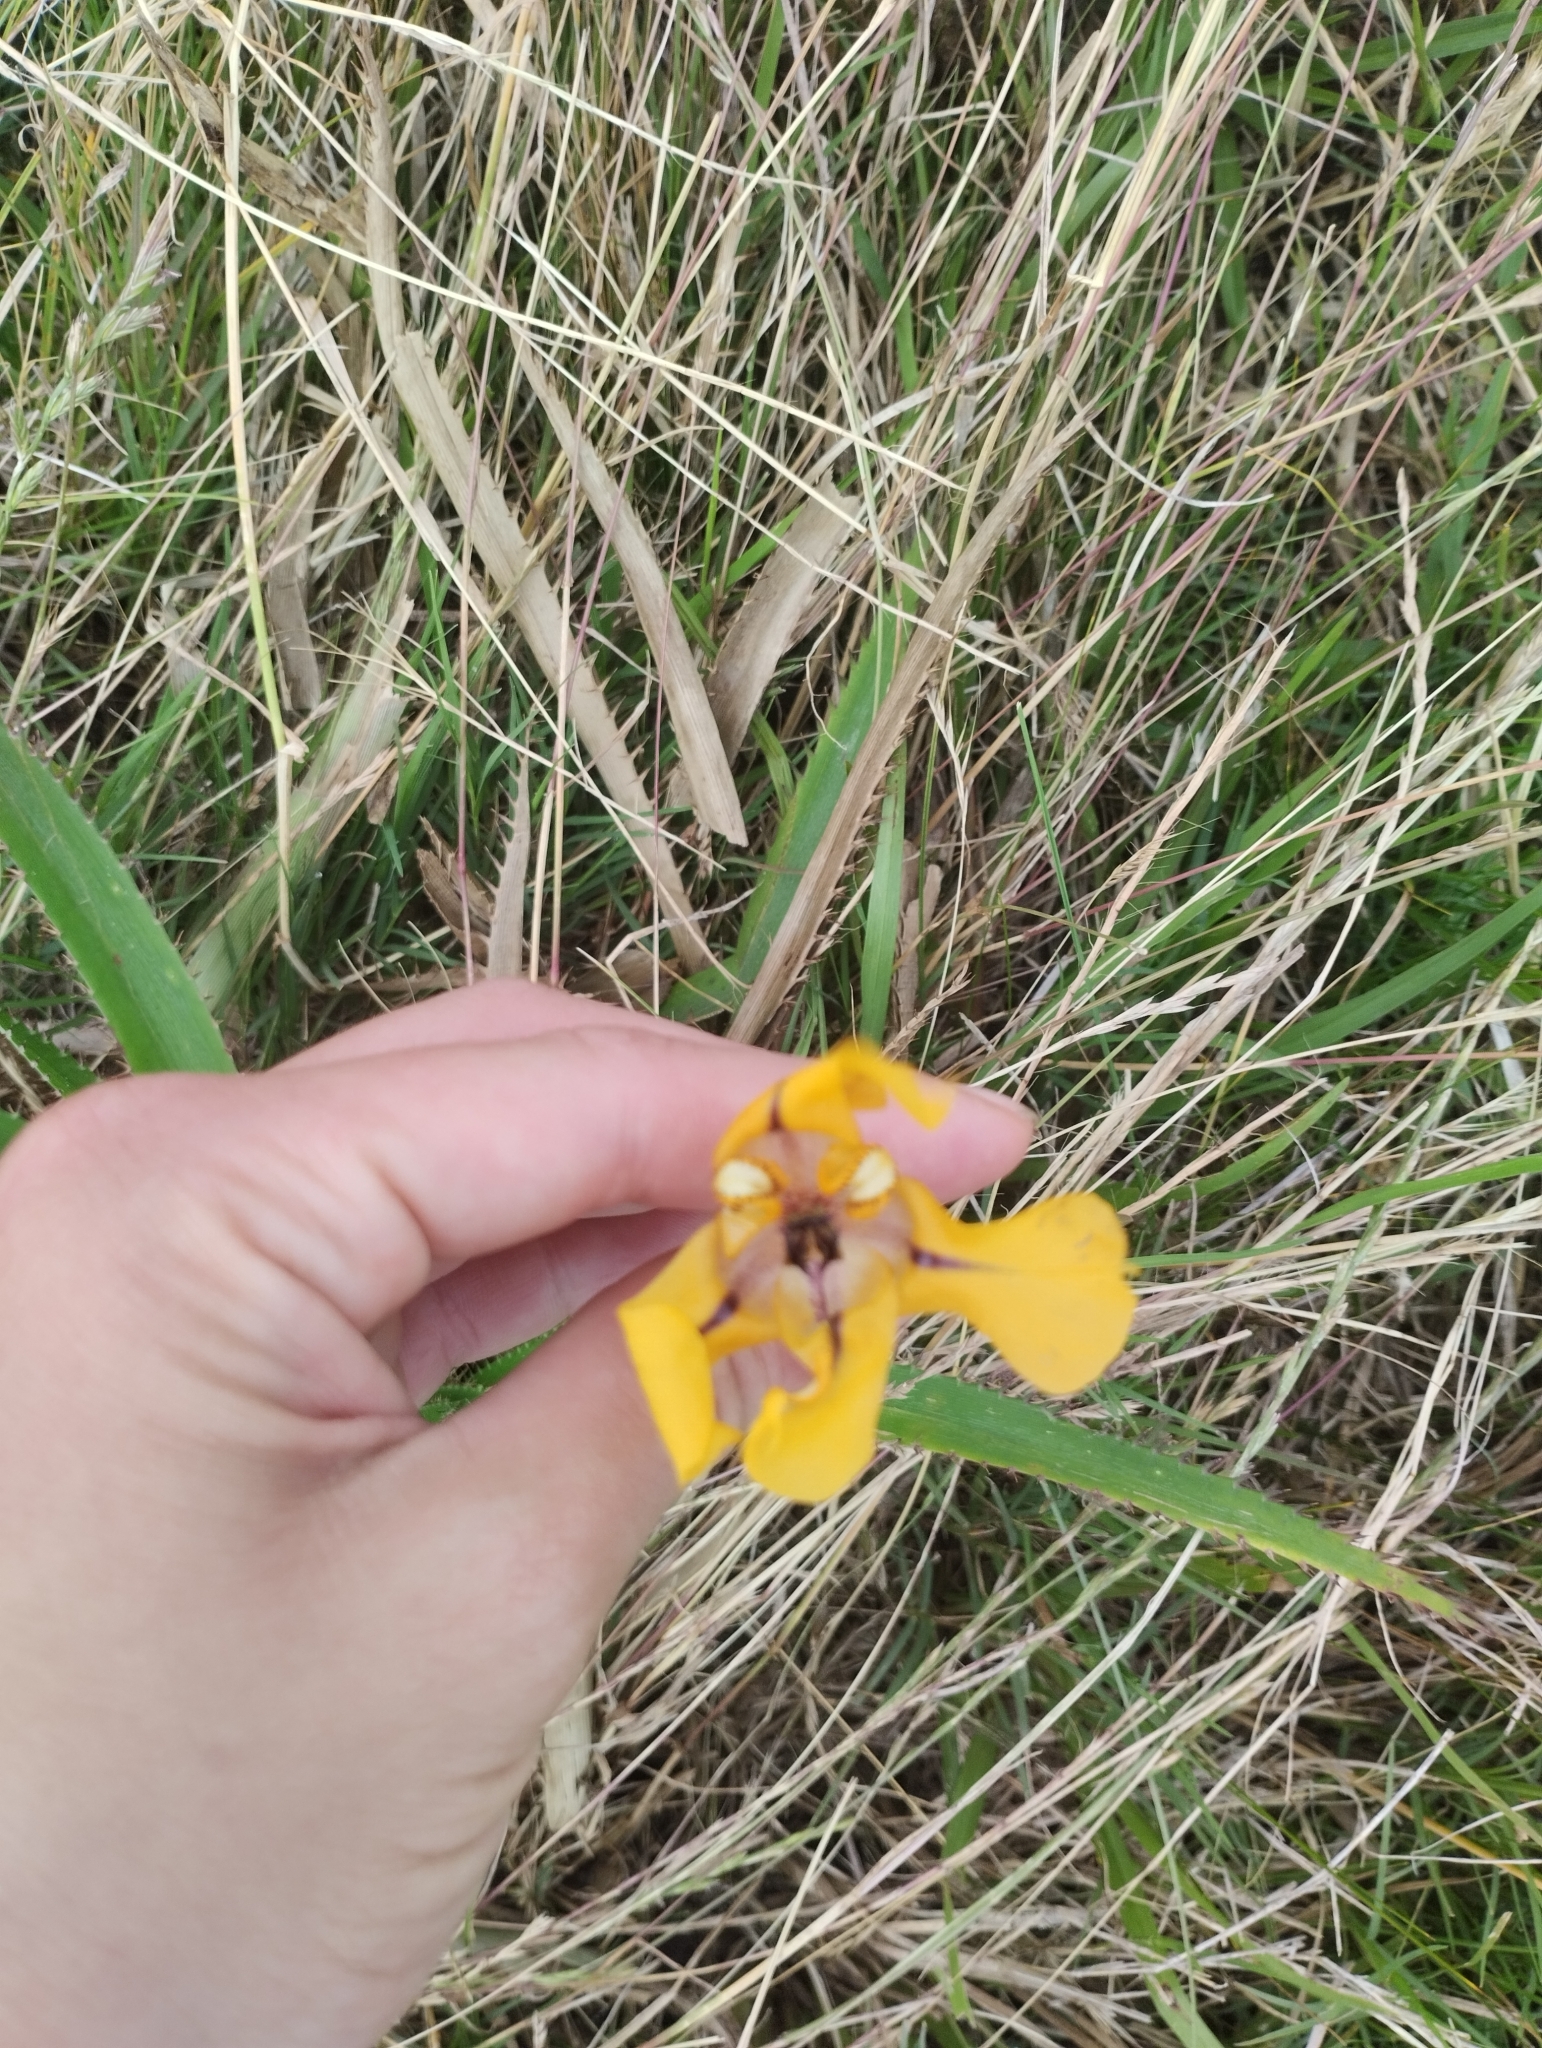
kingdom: Plantae
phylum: Tracheophyta
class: Liliopsida
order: Asparagales
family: Iridaceae
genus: Cypella
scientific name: Cypella herbertii
